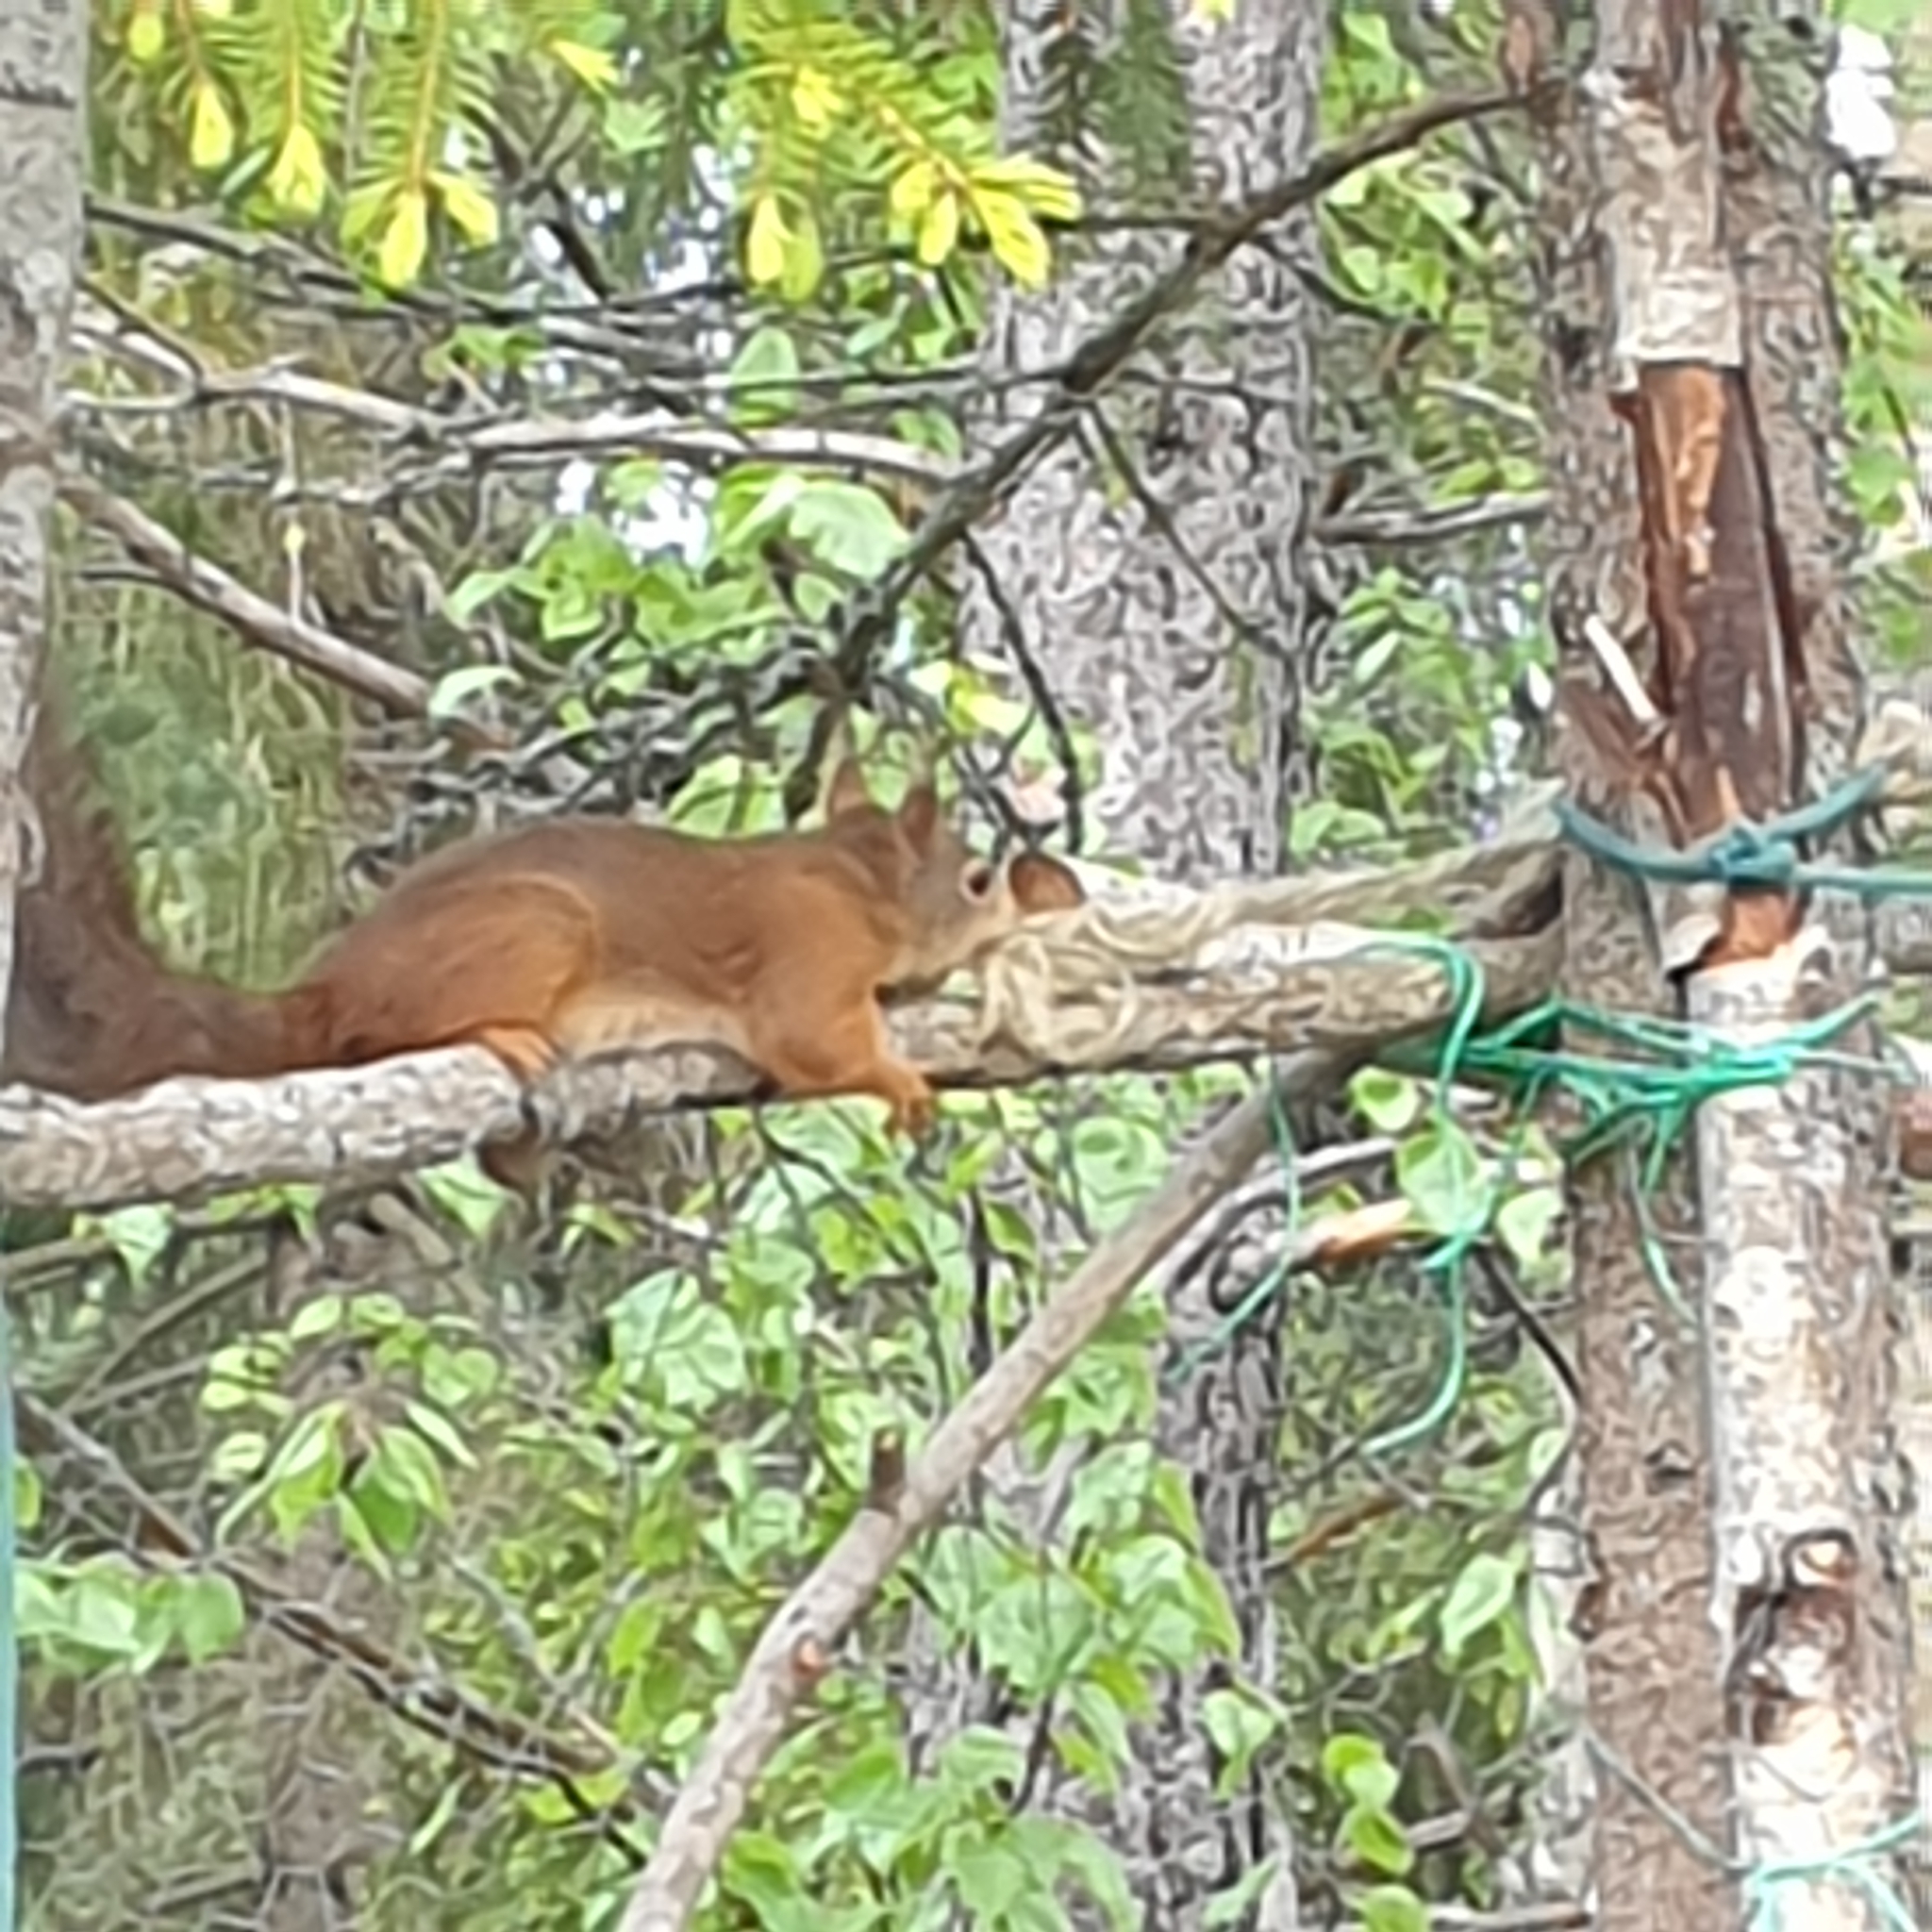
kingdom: Animalia
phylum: Chordata
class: Mammalia
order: Rodentia
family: Sciuridae
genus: Sciurus
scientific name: Sciurus vulgaris
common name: Eurasian red squirrel
